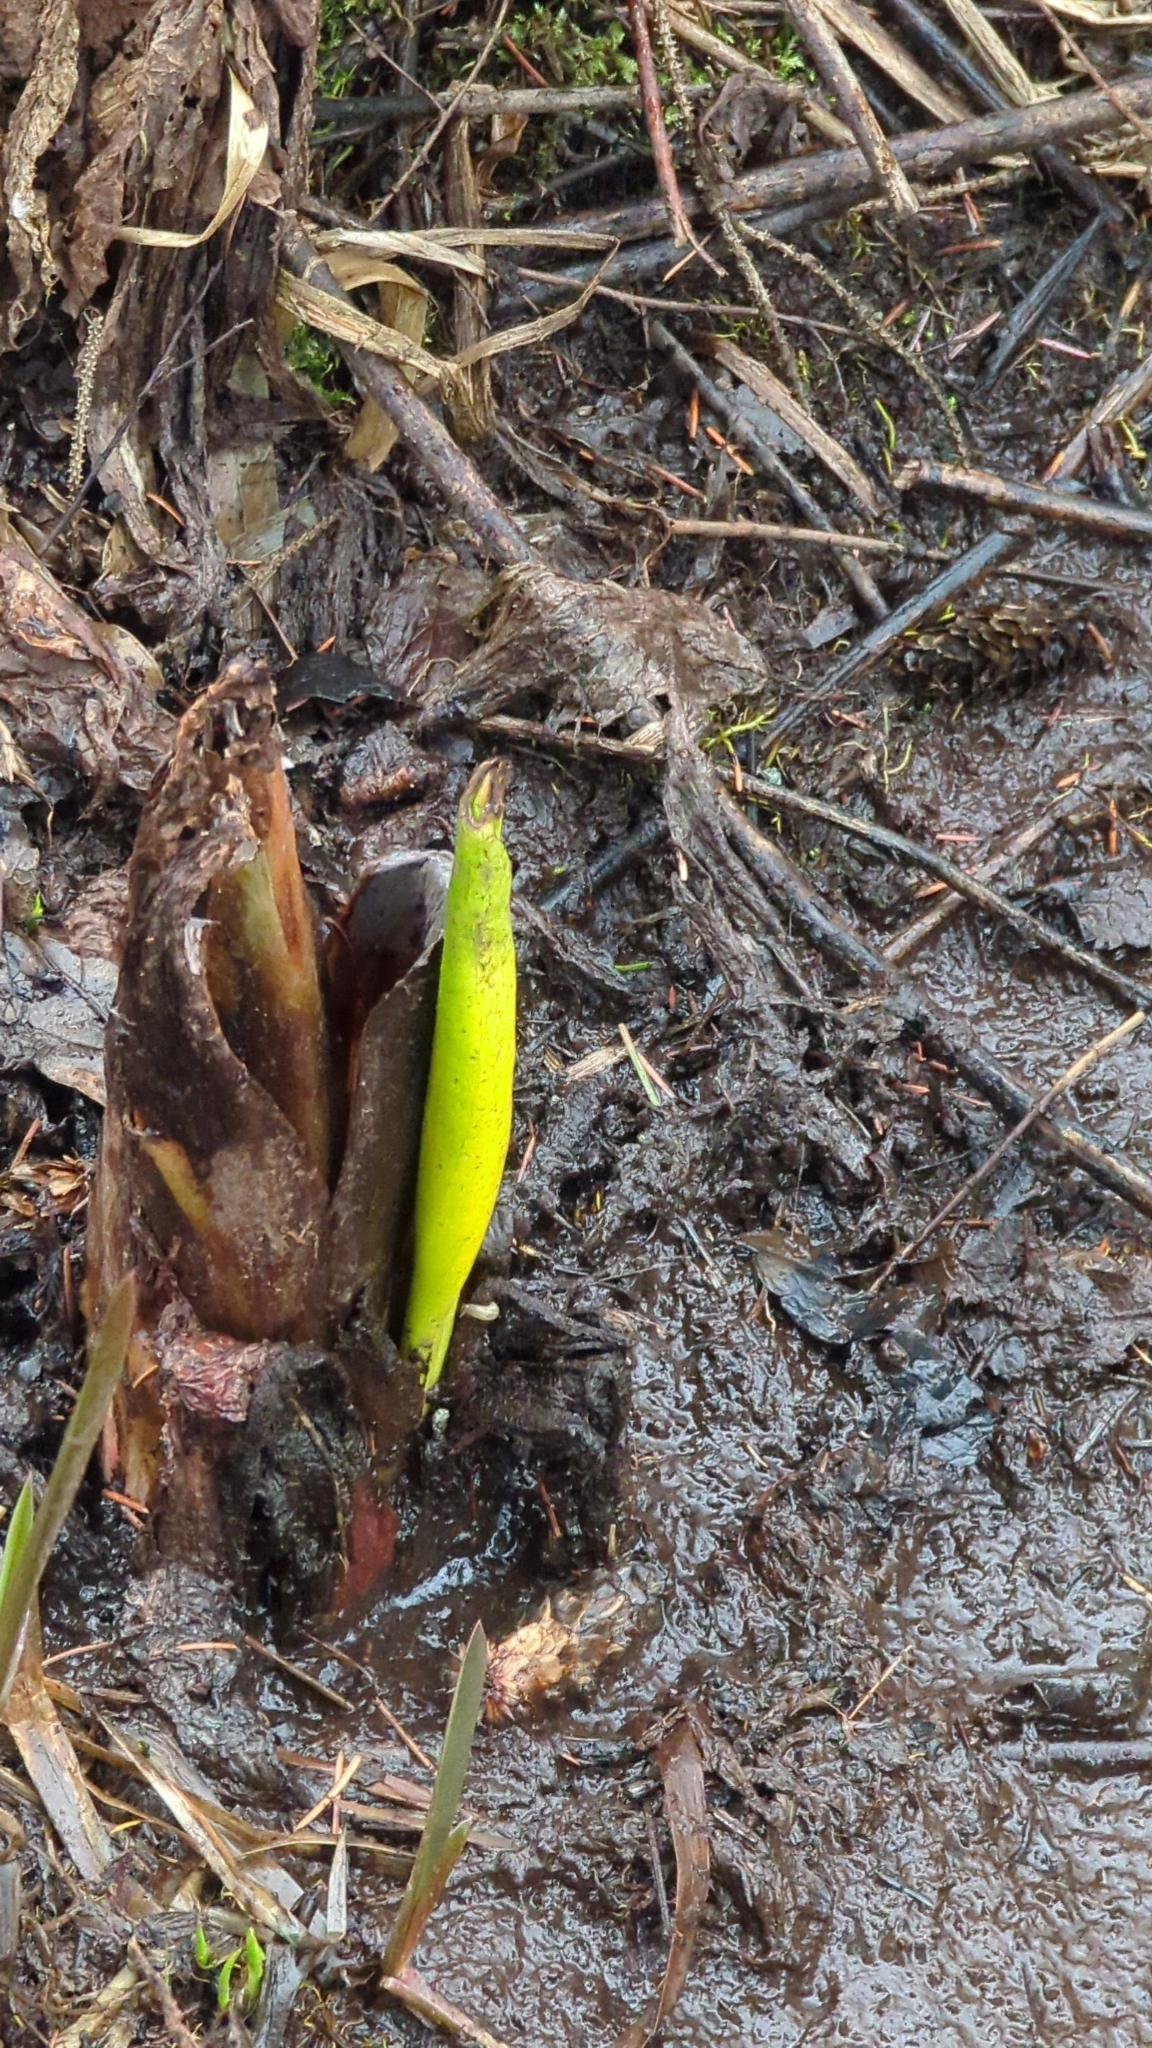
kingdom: Plantae
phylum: Tracheophyta
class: Liliopsida
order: Alismatales
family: Araceae
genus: Lysichiton
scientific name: Lysichiton americanus
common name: American skunk cabbage
